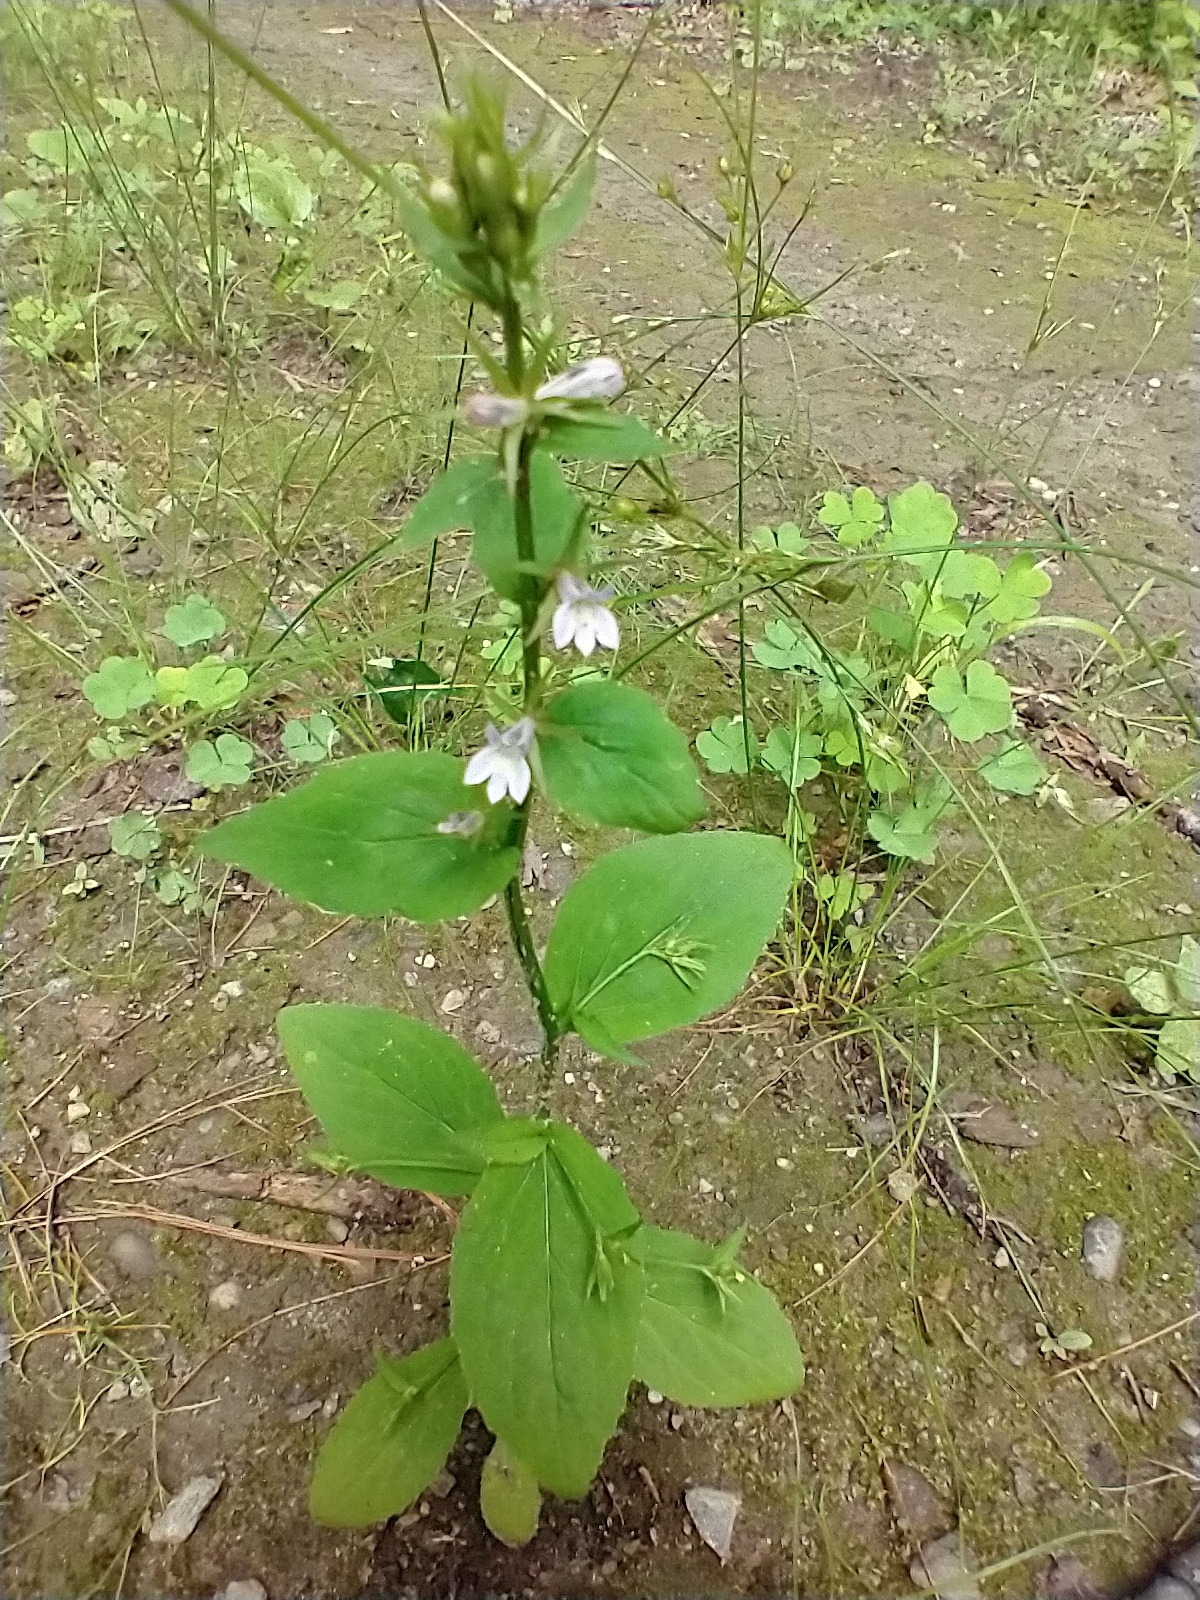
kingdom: Plantae
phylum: Tracheophyta
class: Magnoliopsida
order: Asterales
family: Campanulaceae
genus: Lobelia
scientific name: Lobelia inflata
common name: Indian tobacco
